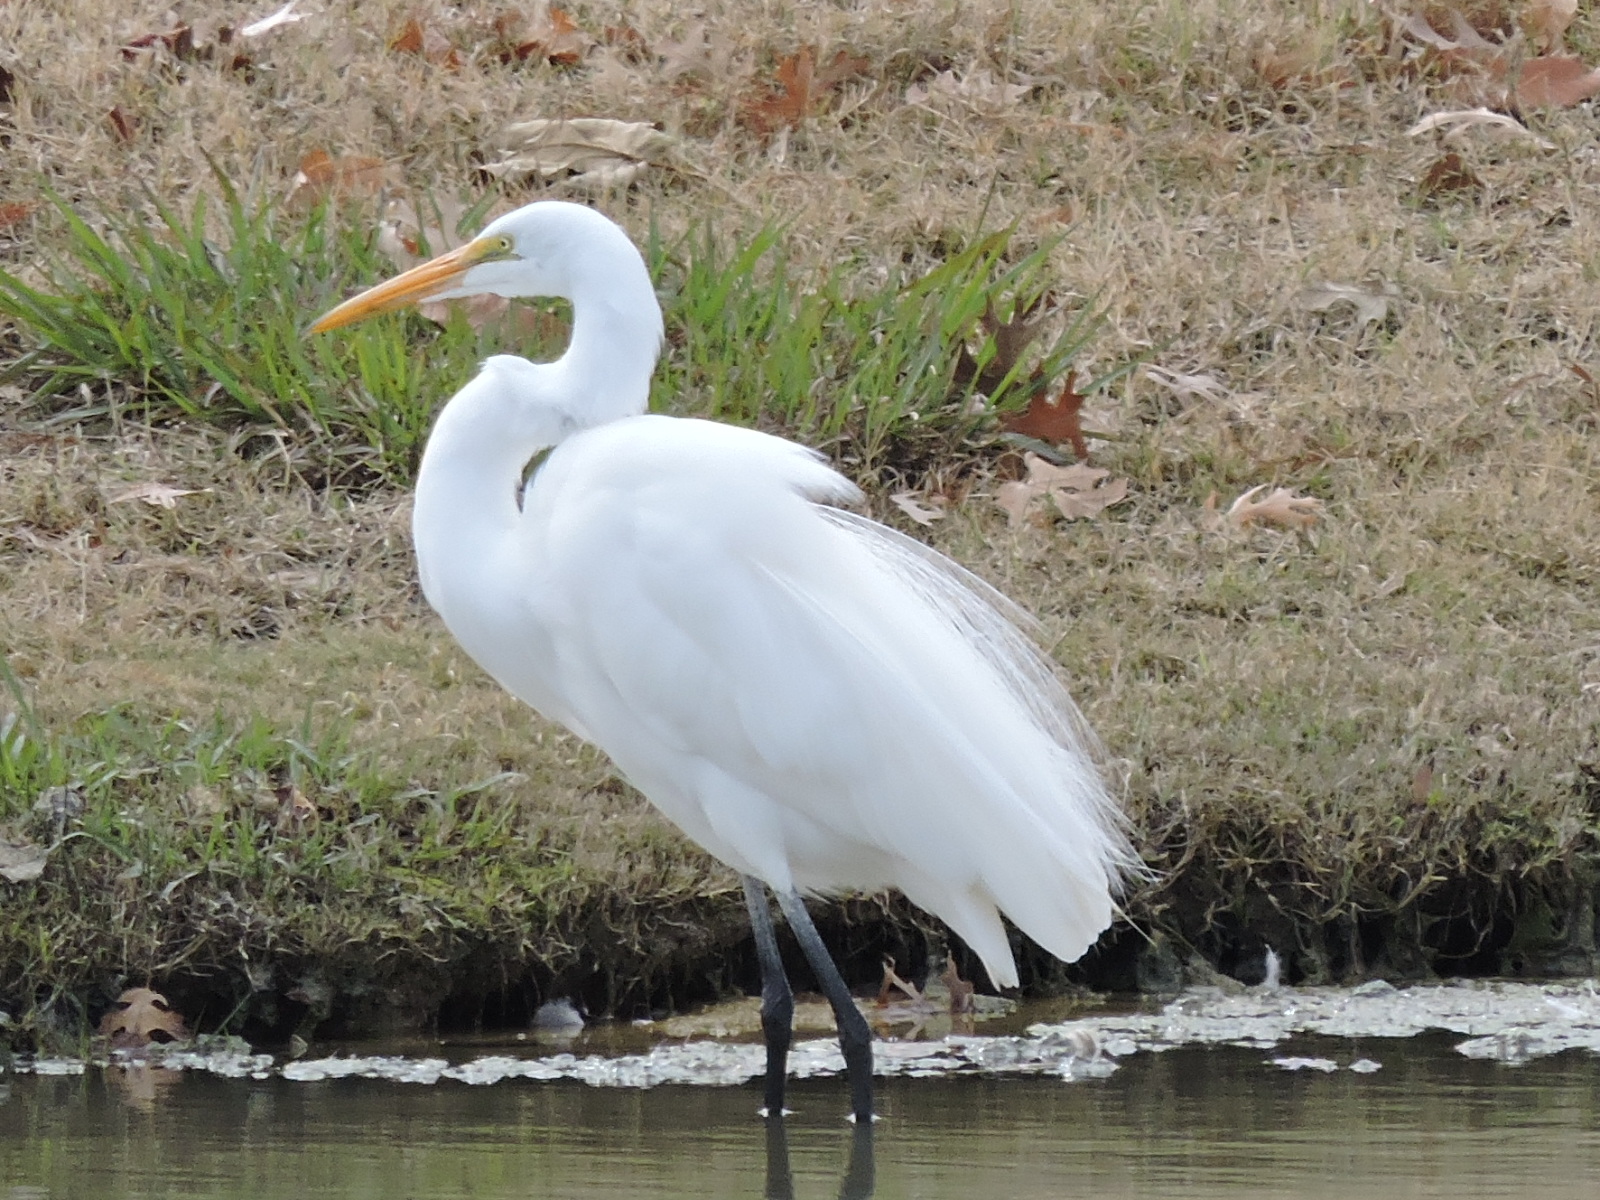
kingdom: Animalia
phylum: Chordata
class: Aves
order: Pelecaniformes
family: Ardeidae
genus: Ardea
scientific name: Ardea alba
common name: Great egret
